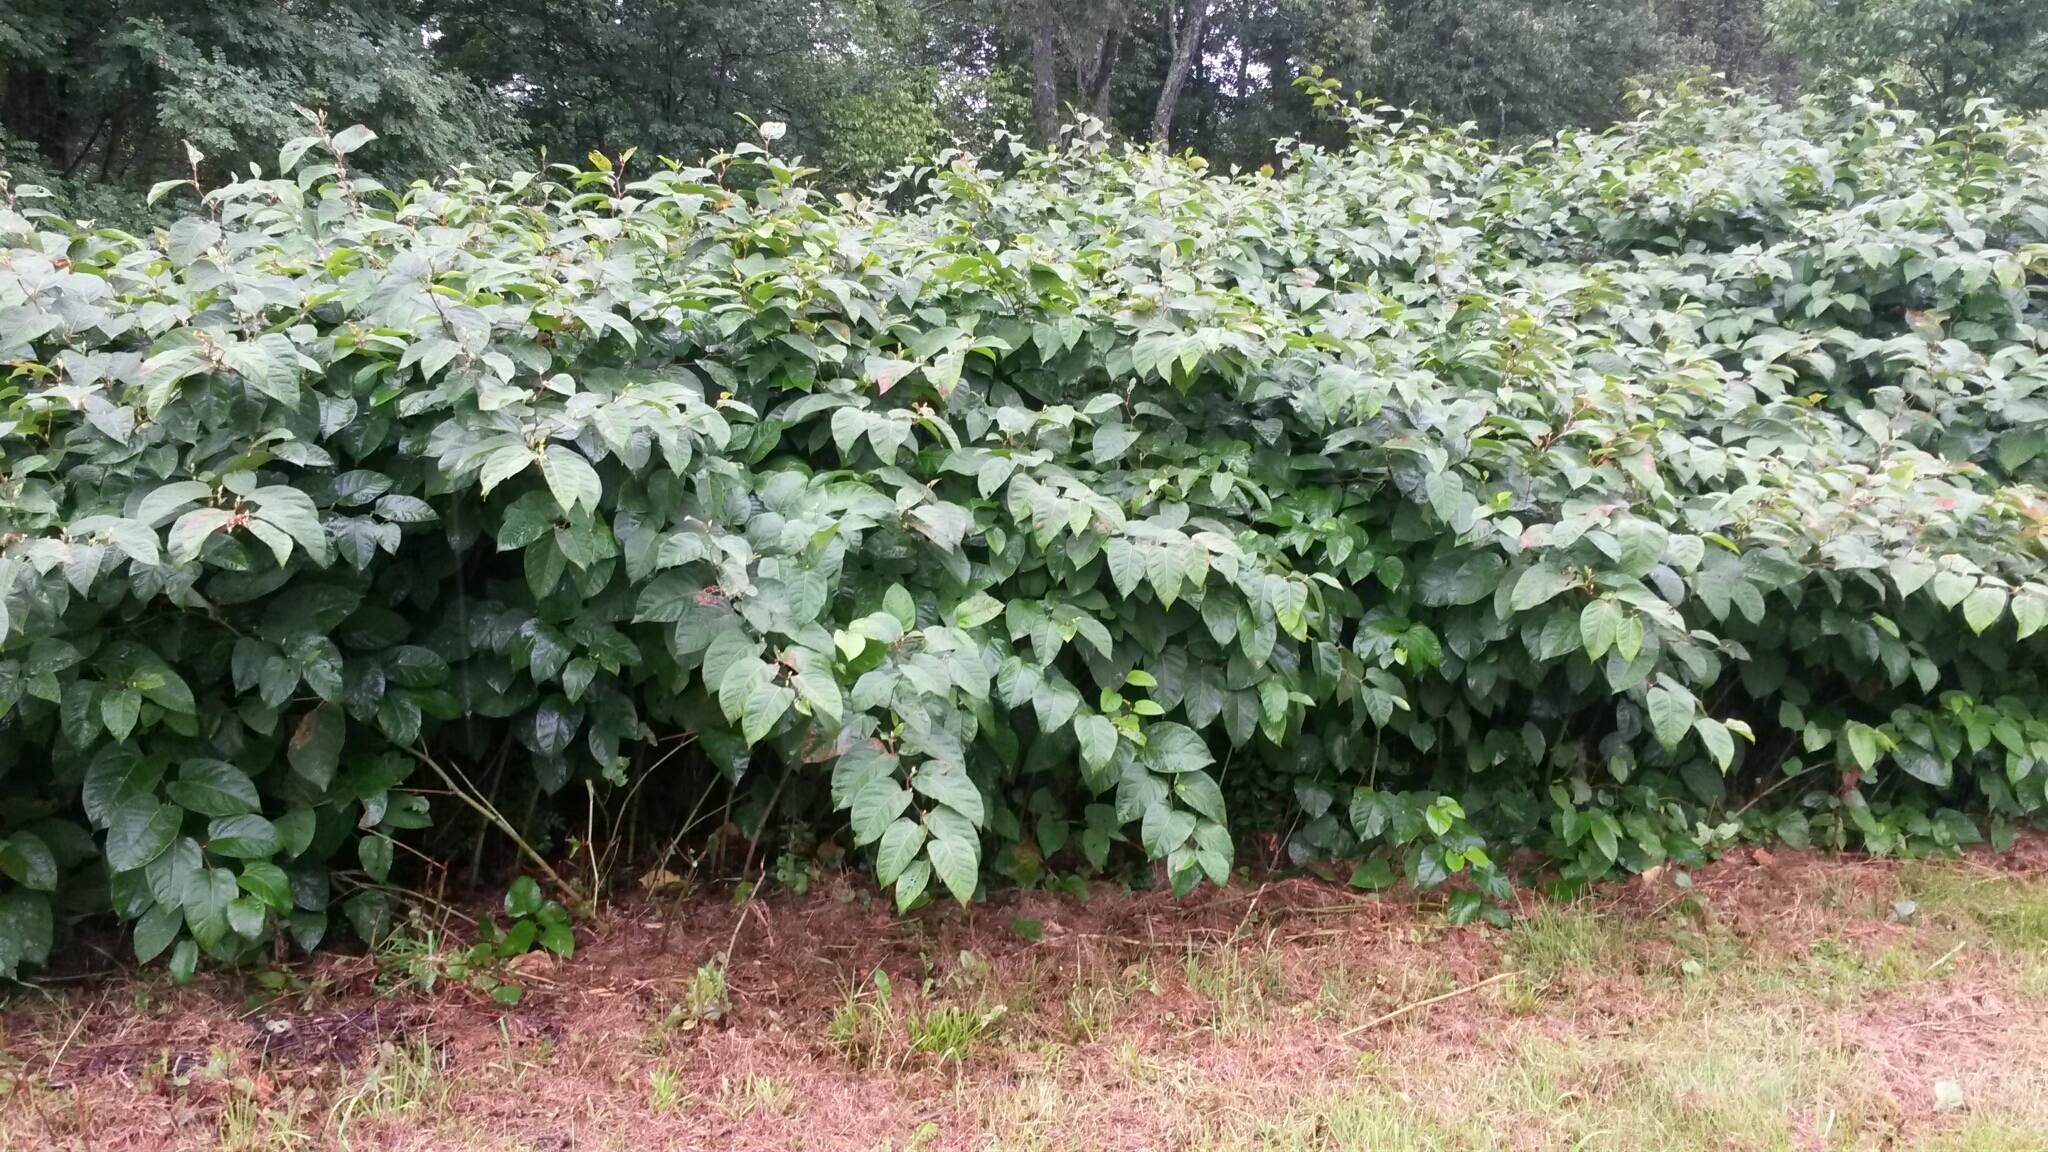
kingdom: Plantae
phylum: Tracheophyta
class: Magnoliopsida
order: Caryophyllales
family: Polygonaceae
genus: Reynoutria
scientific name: Reynoutria japonica
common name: Japanese knotweed
